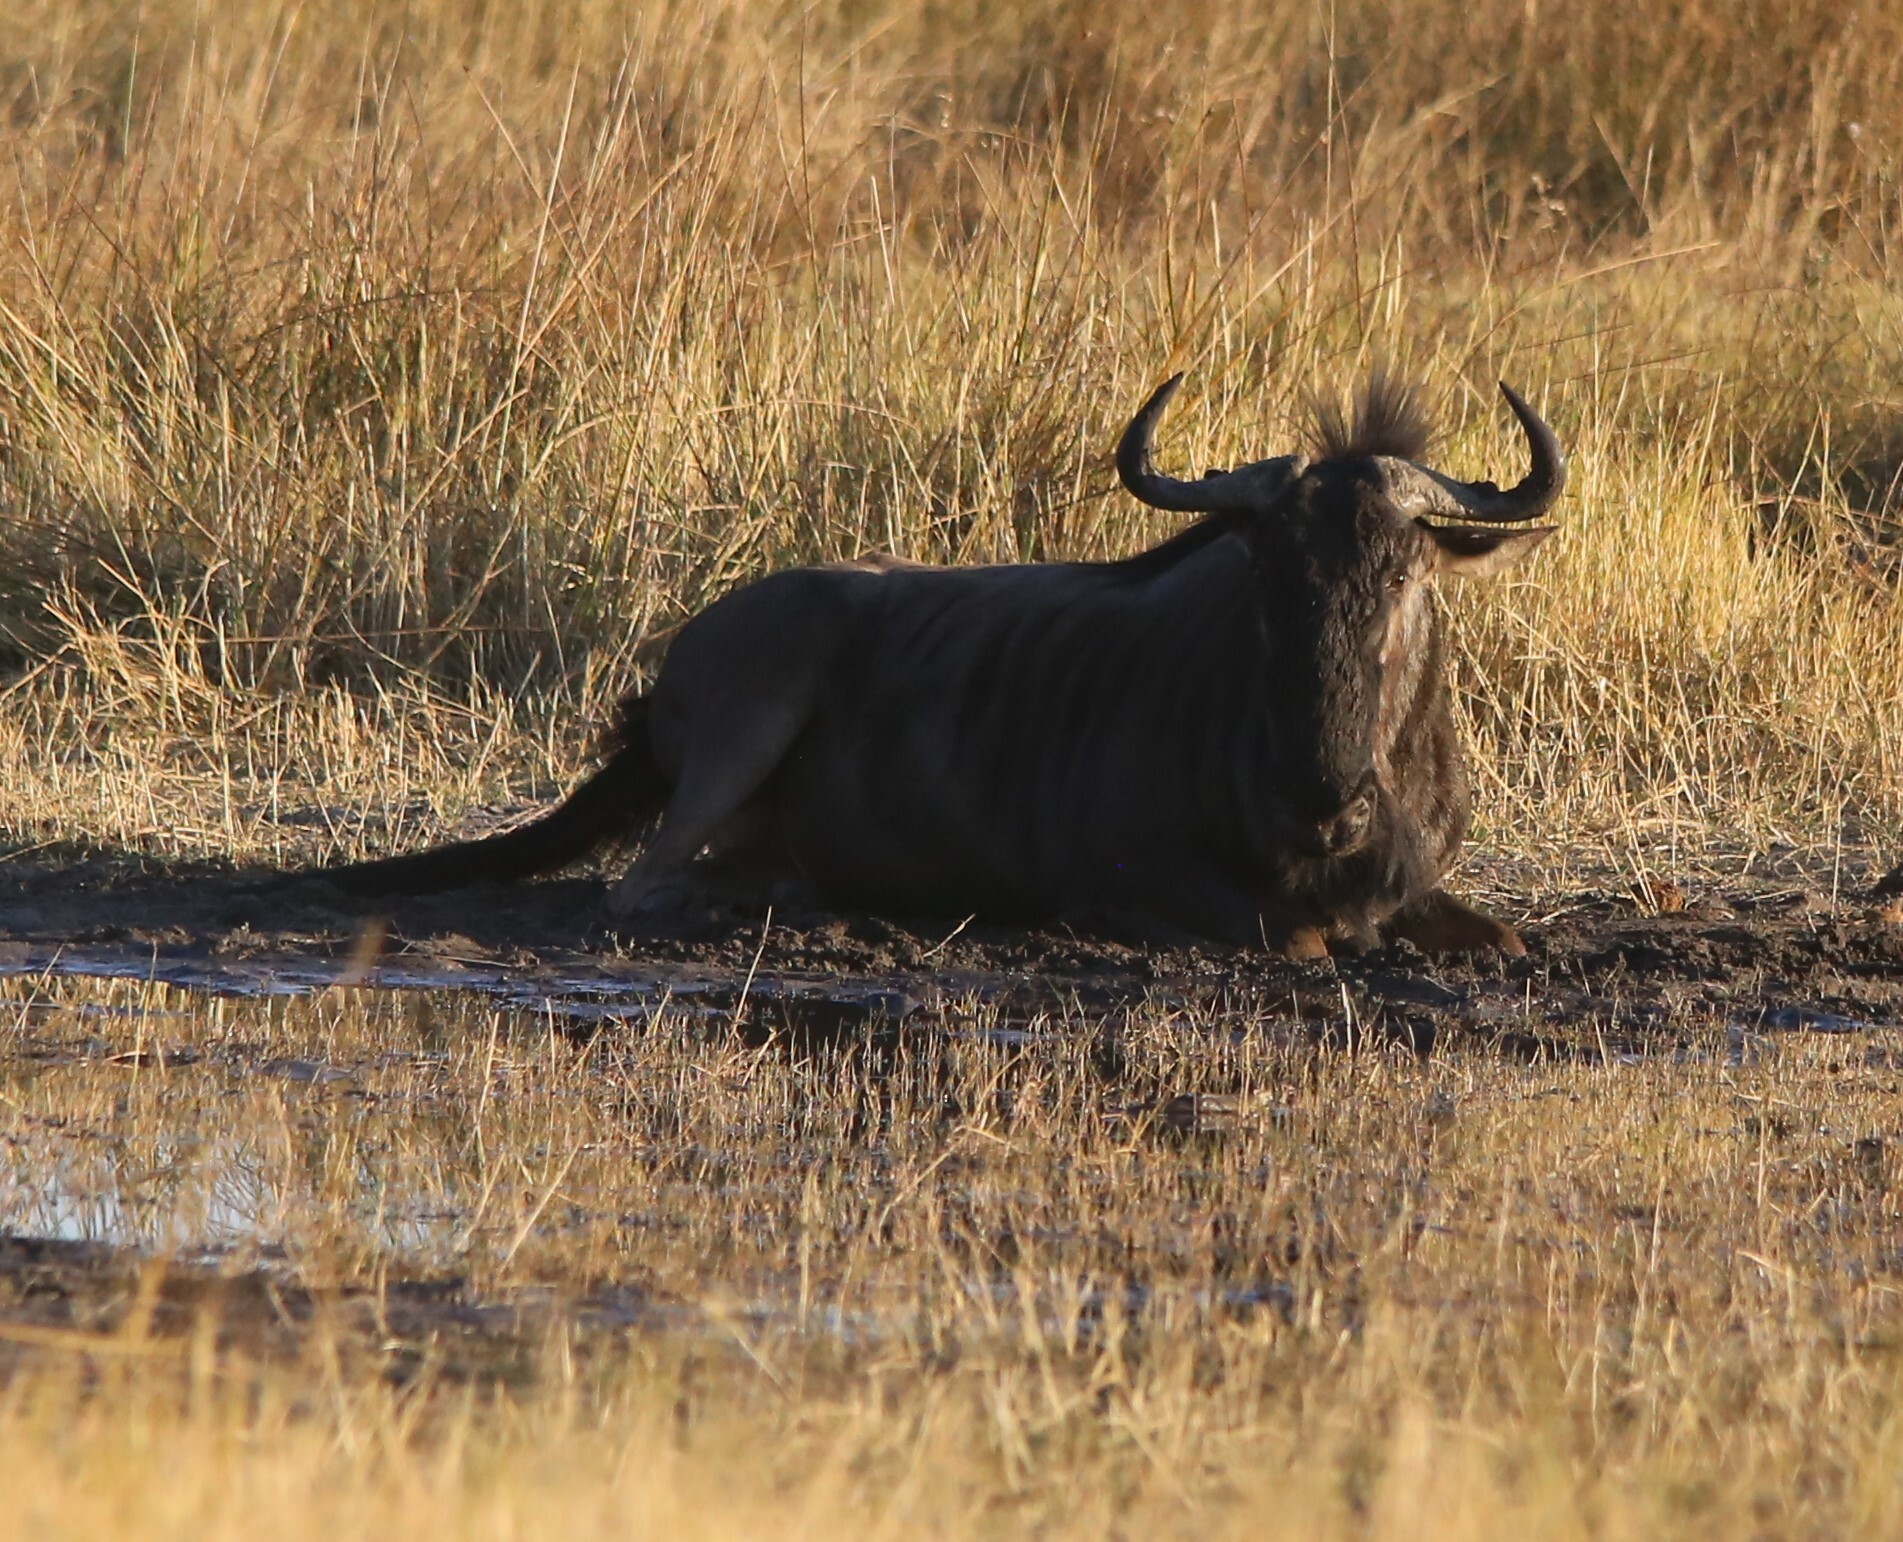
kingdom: Animalia
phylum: Chordata
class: Mammalia
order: Artiodactyla
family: Bovidae
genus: Connochaetes
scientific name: Connochaetes taurinus
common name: Blue wildebeest
